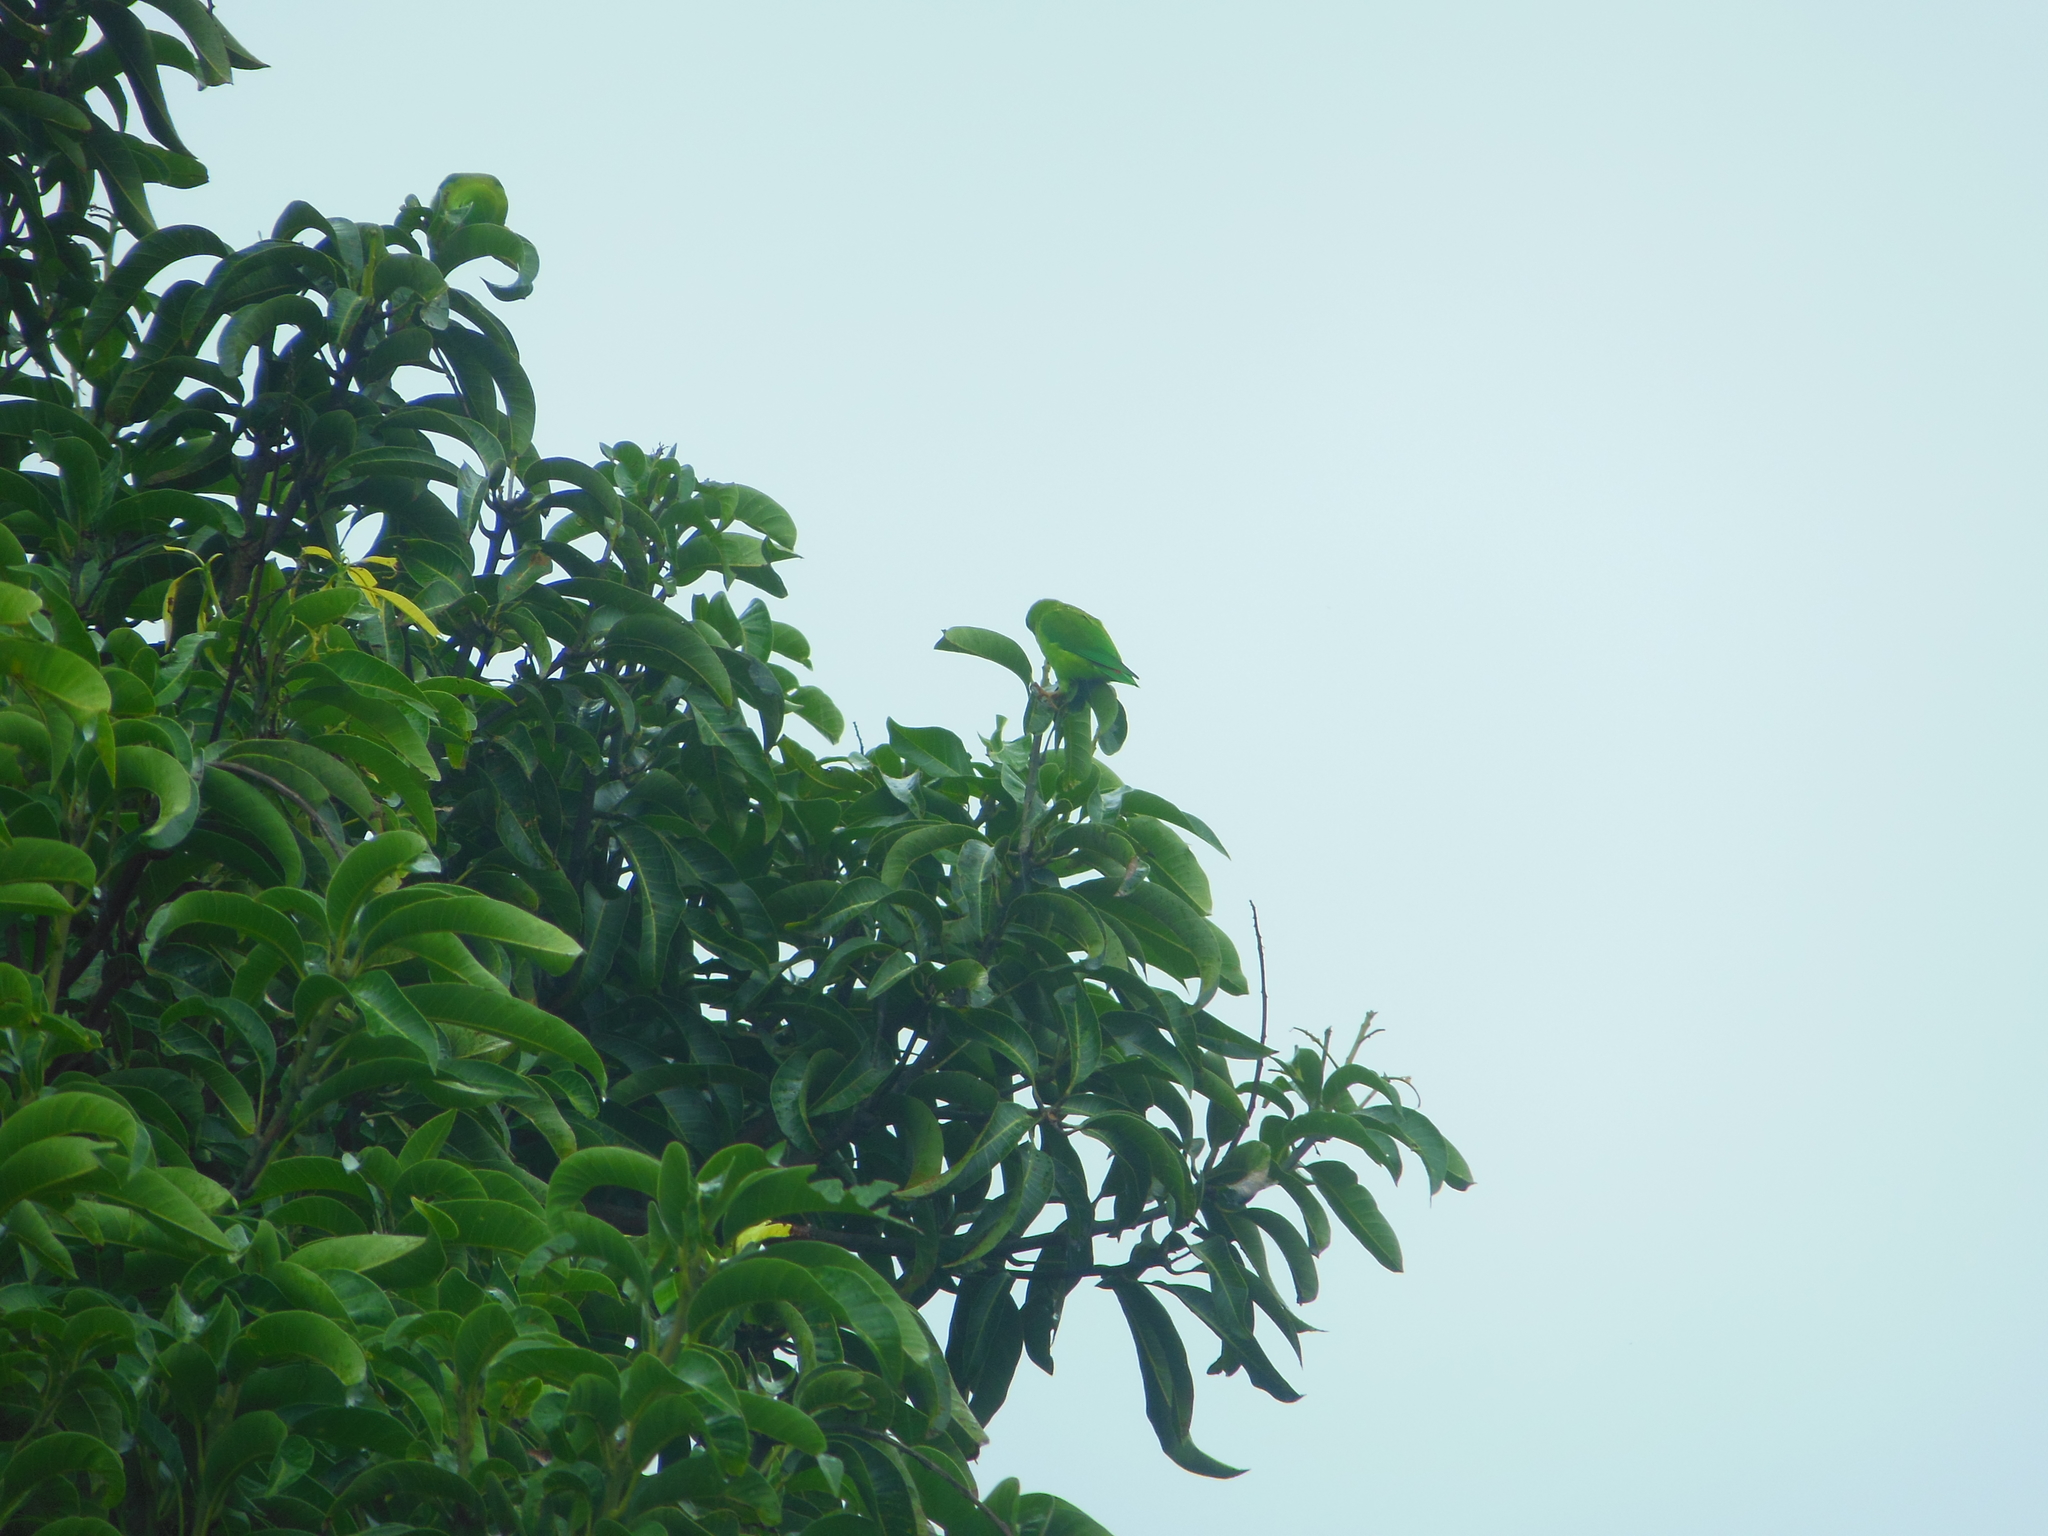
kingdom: Animalia
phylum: Chordata
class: Aves
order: Psittaciformes
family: Psittacidae
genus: Loriculus
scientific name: Loriculus vernalis
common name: Vernal hanging parrot
